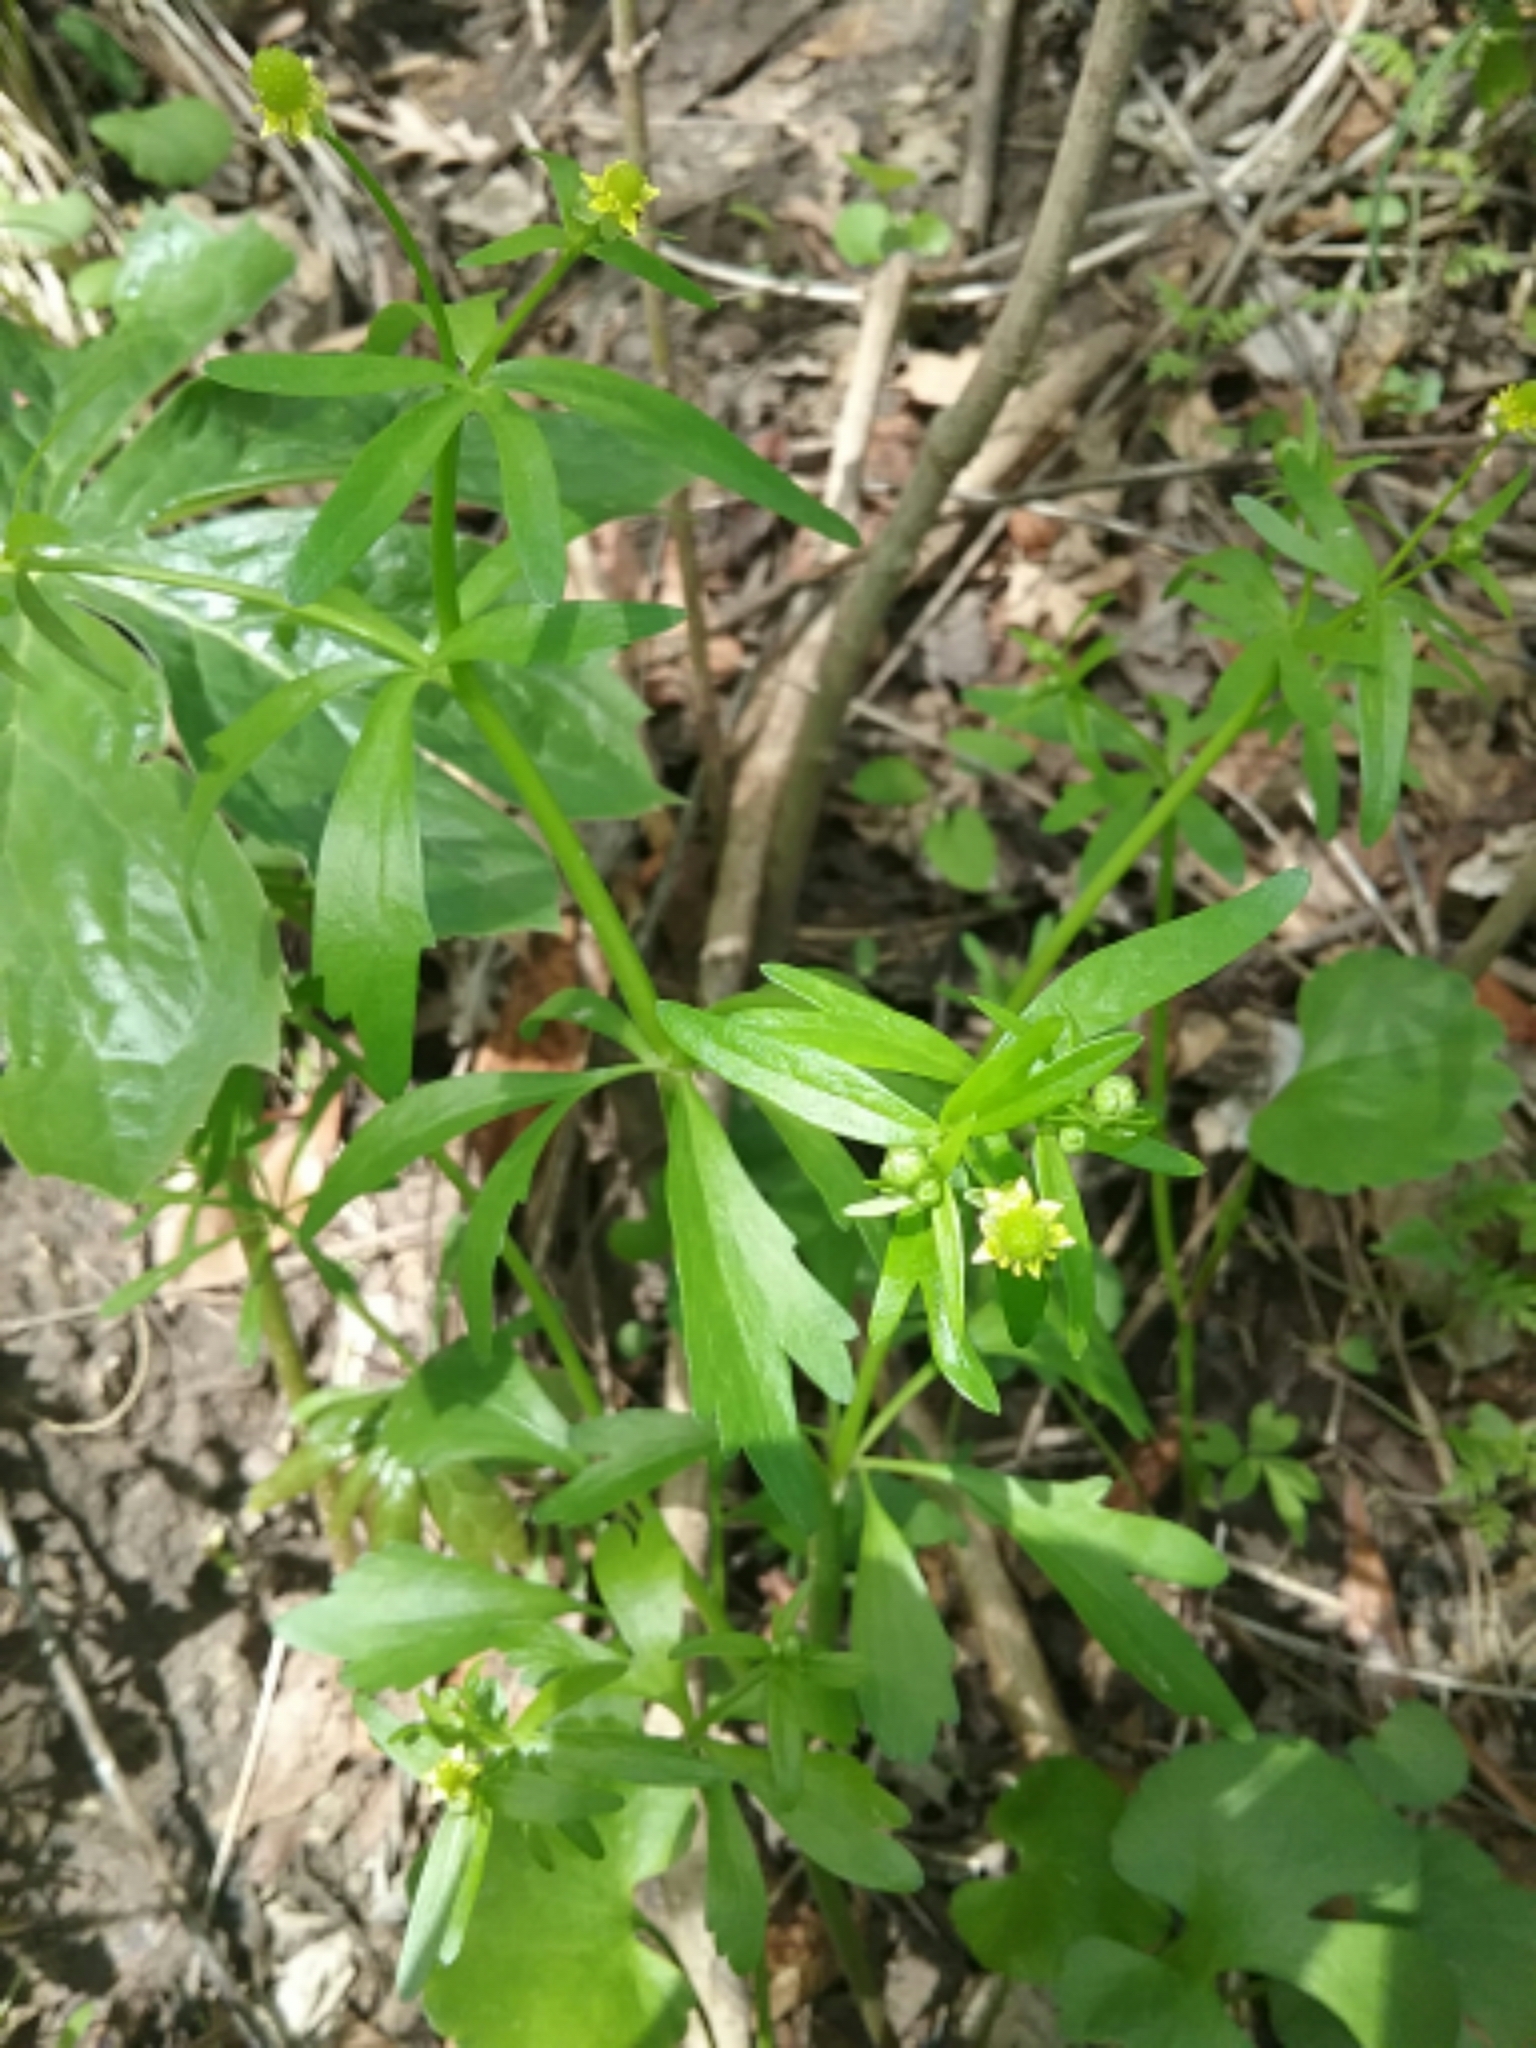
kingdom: Plantae
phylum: Tracheophyta
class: Magnoliopsida
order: Ranunculales
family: Ranunculaceae
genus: Ranunculus
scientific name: Ranunculus abortivus
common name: Early wood buttercup
